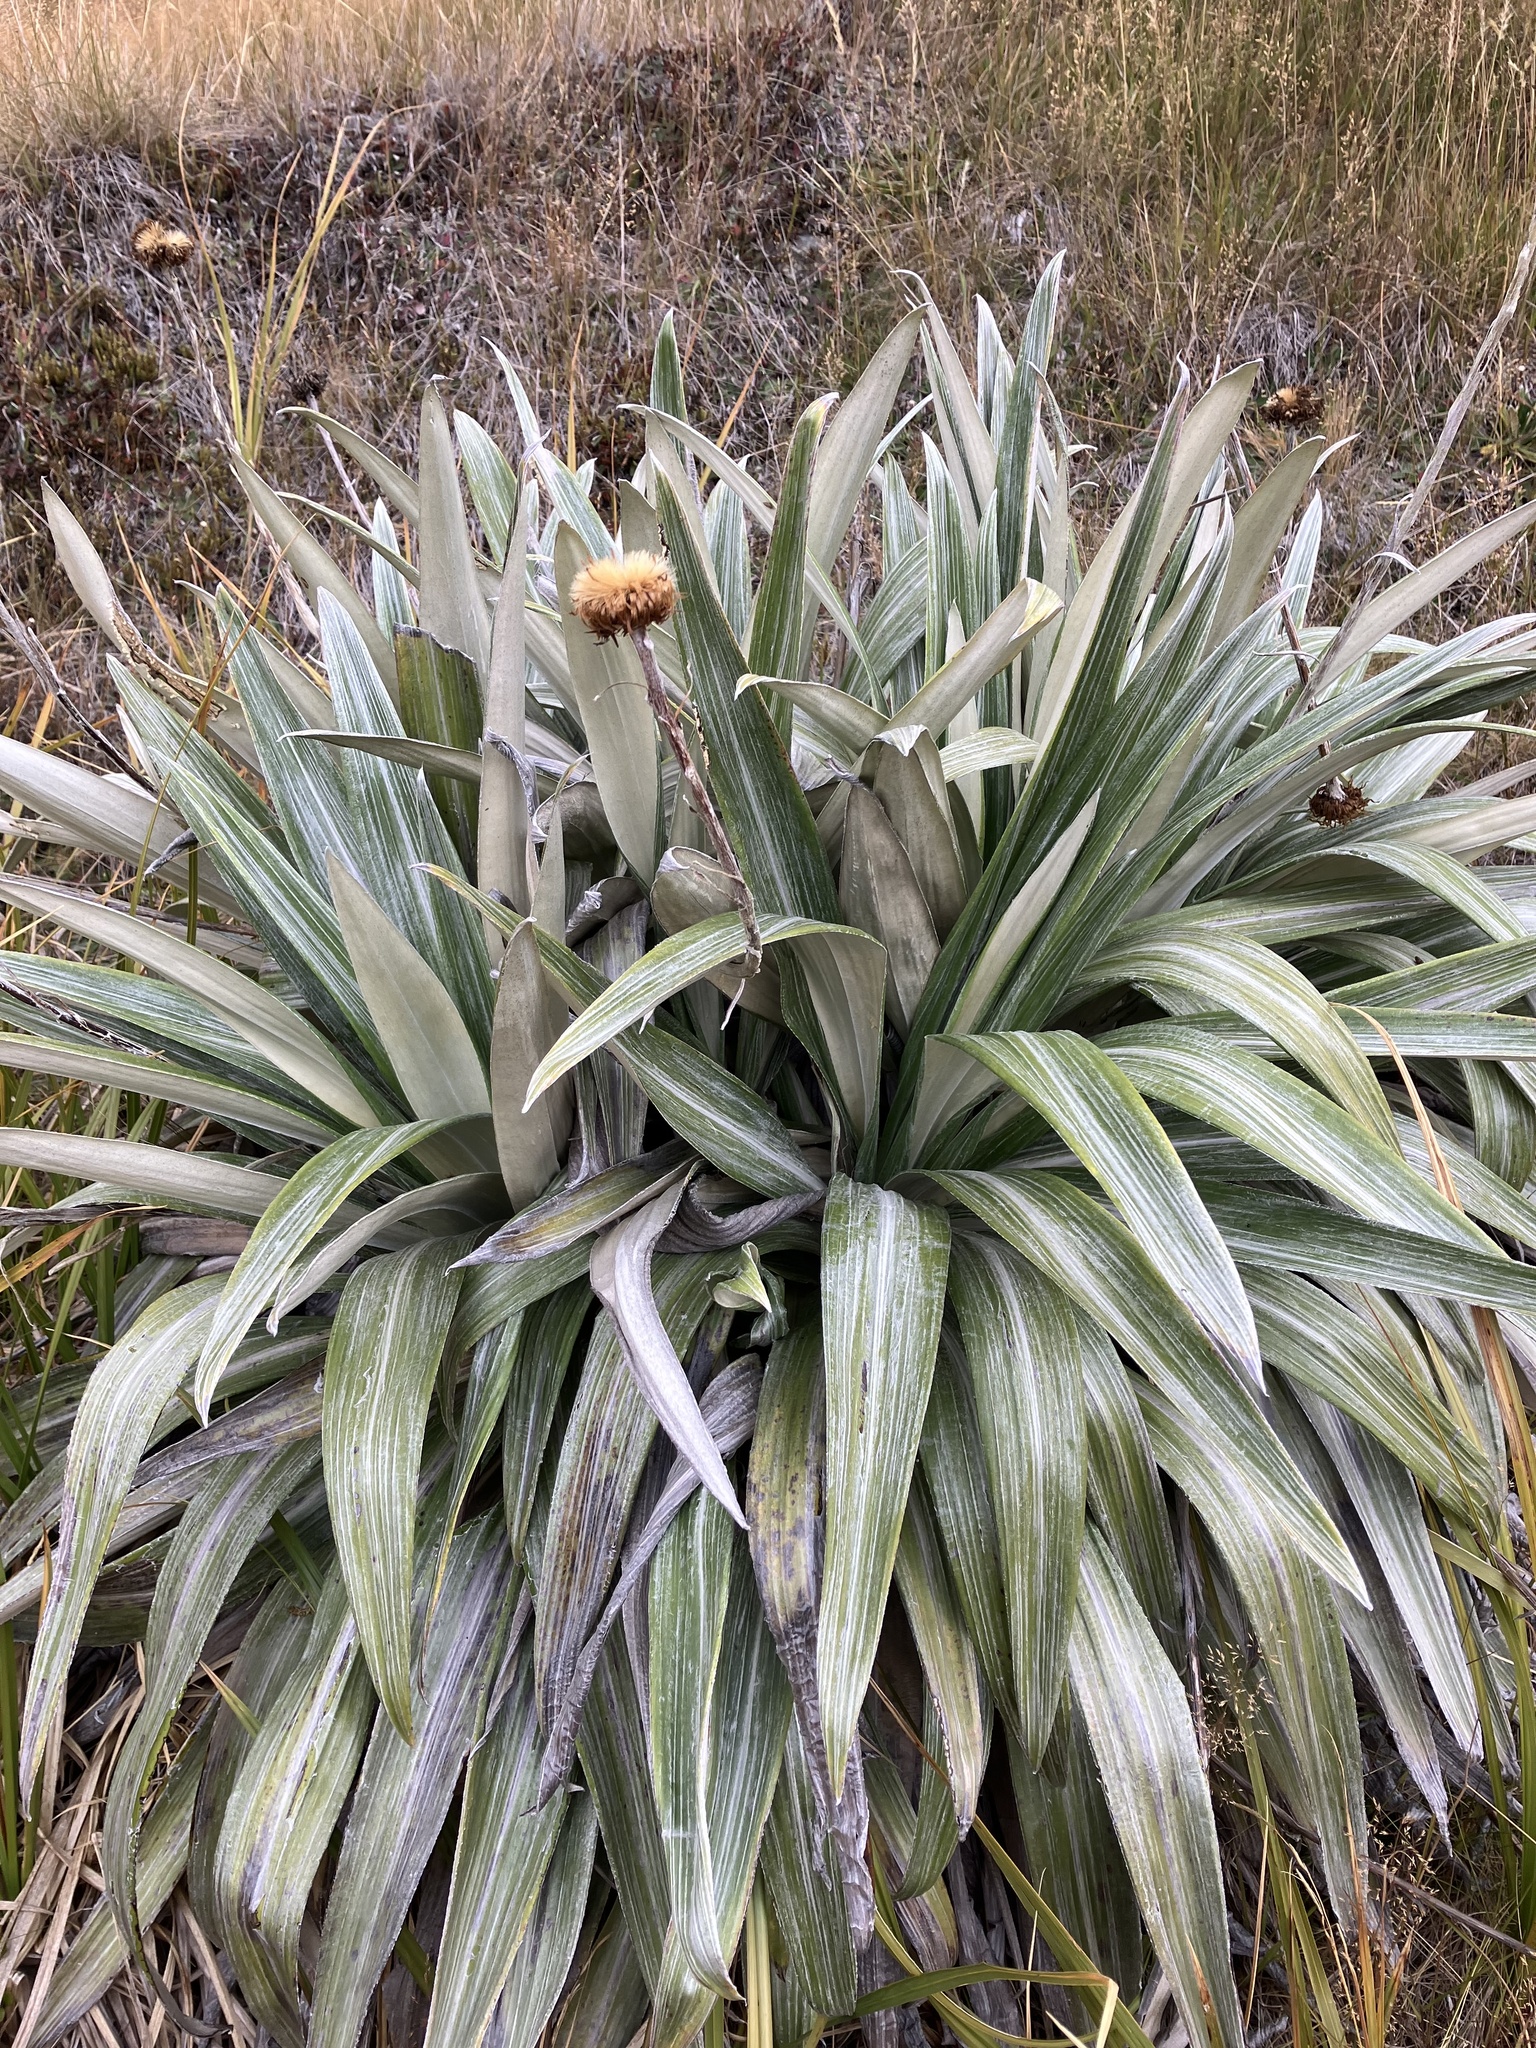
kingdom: Plantae
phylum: Tracheophyta
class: Magnoliopsida
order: Asterales
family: Asteraceae
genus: Celmisia
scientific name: Celmisia semicordata
